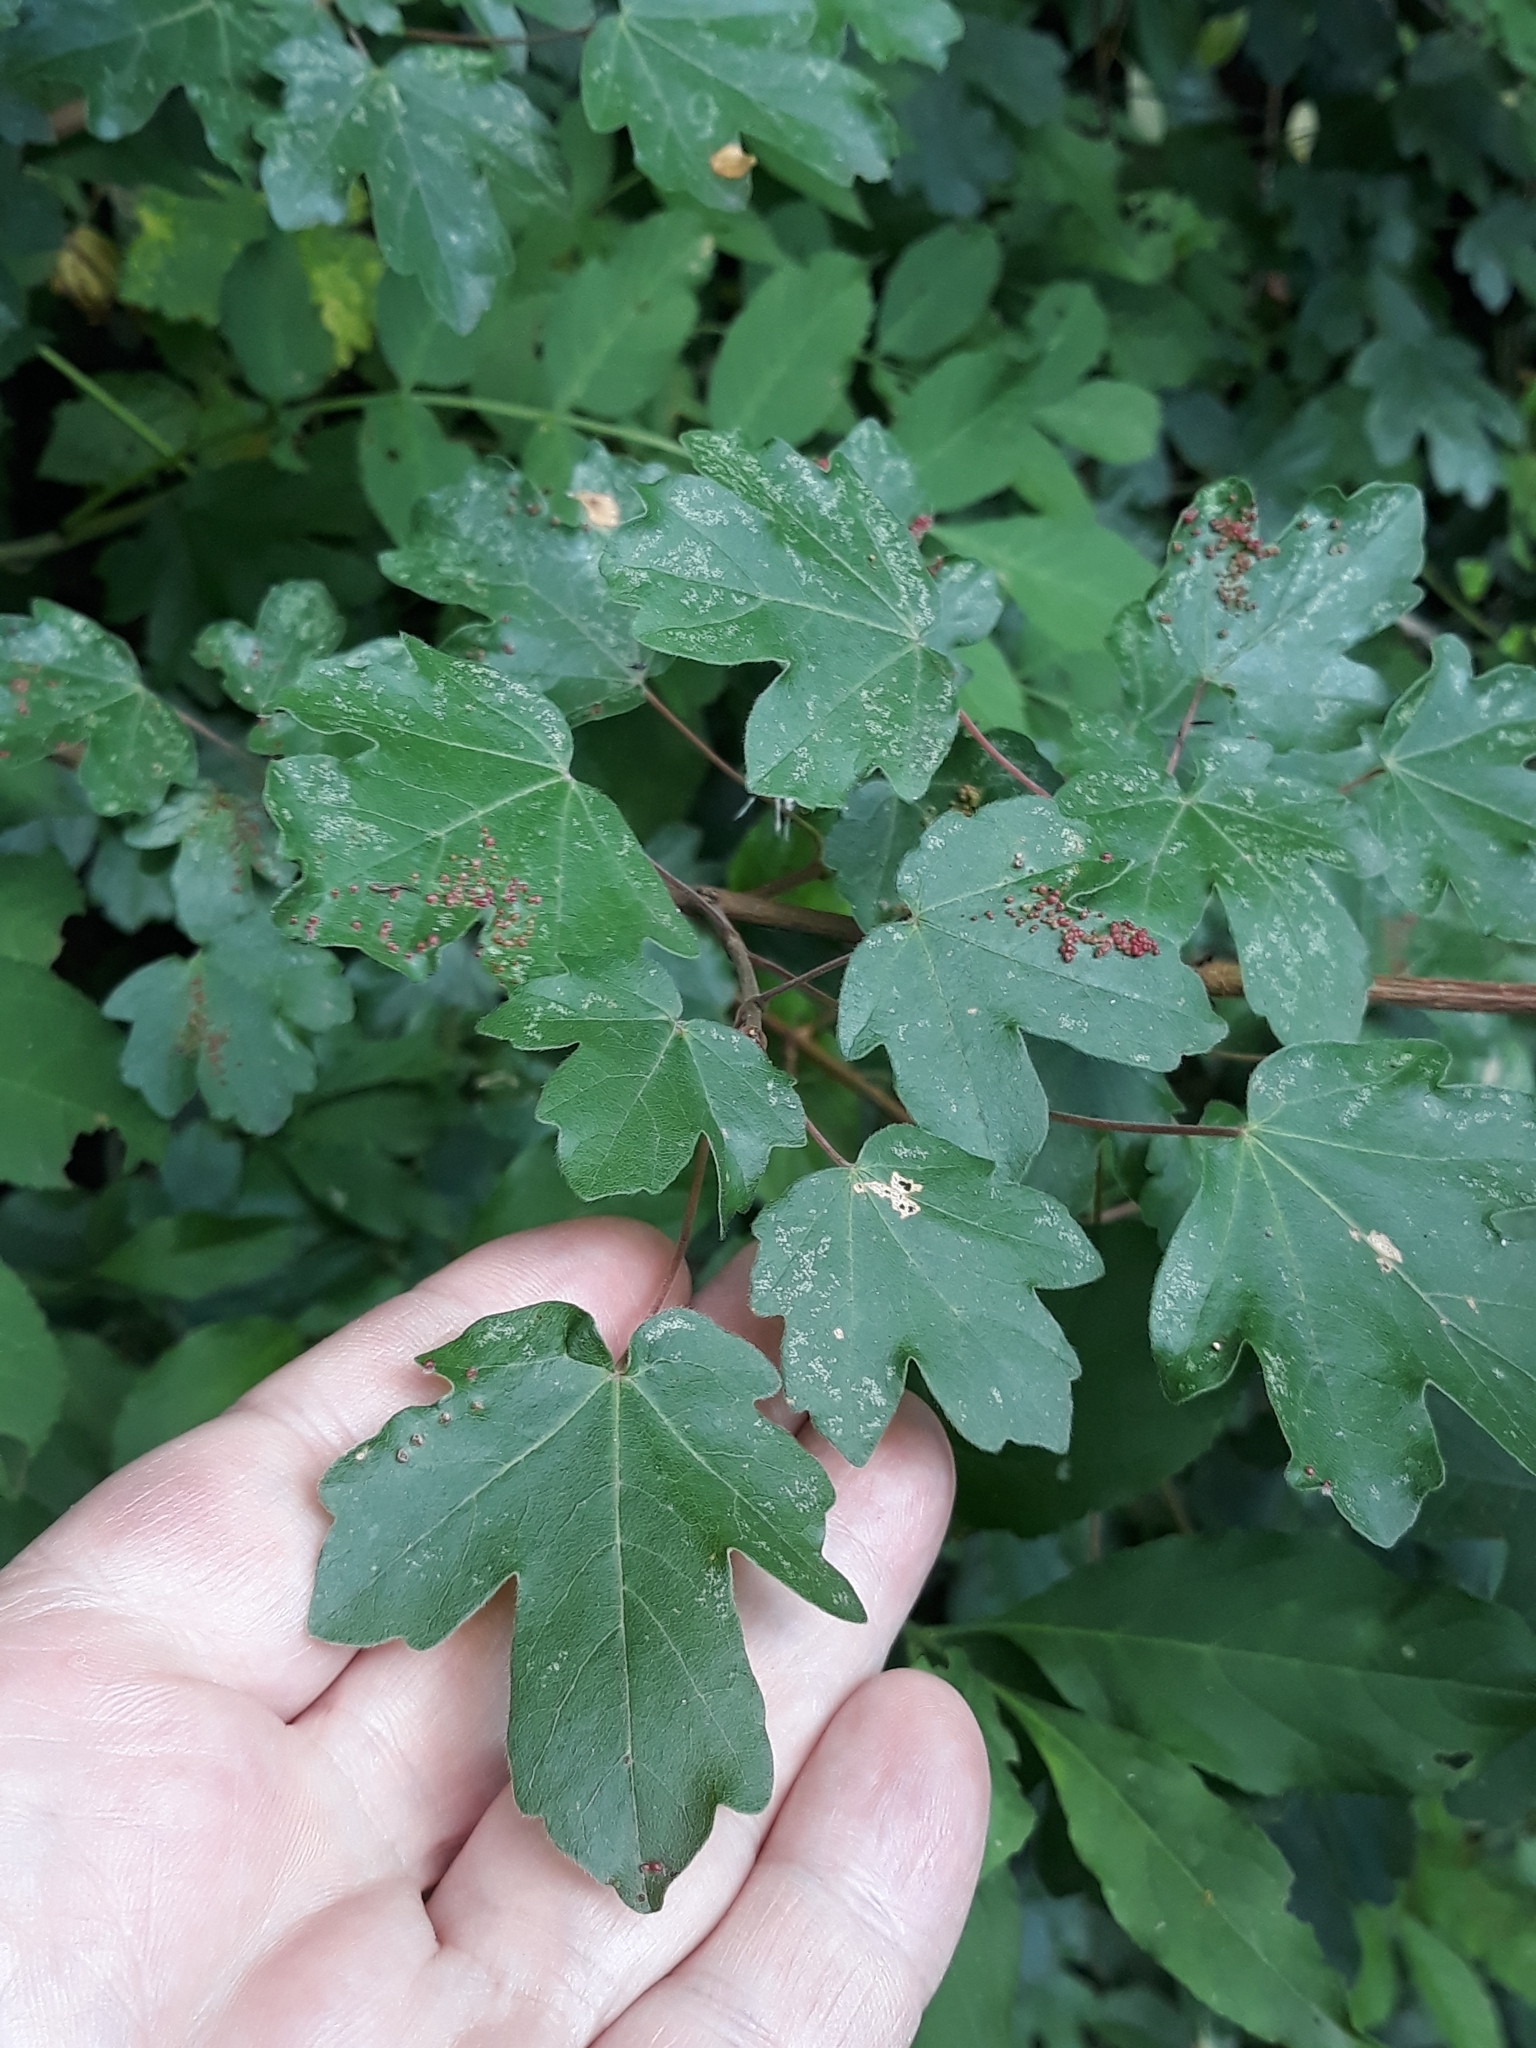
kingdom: Plantae
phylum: Tracheophyta
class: Magnoliopsida
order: Sapindales
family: Sapindaceae
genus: Acer
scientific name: Acer campestre
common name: Field maple
